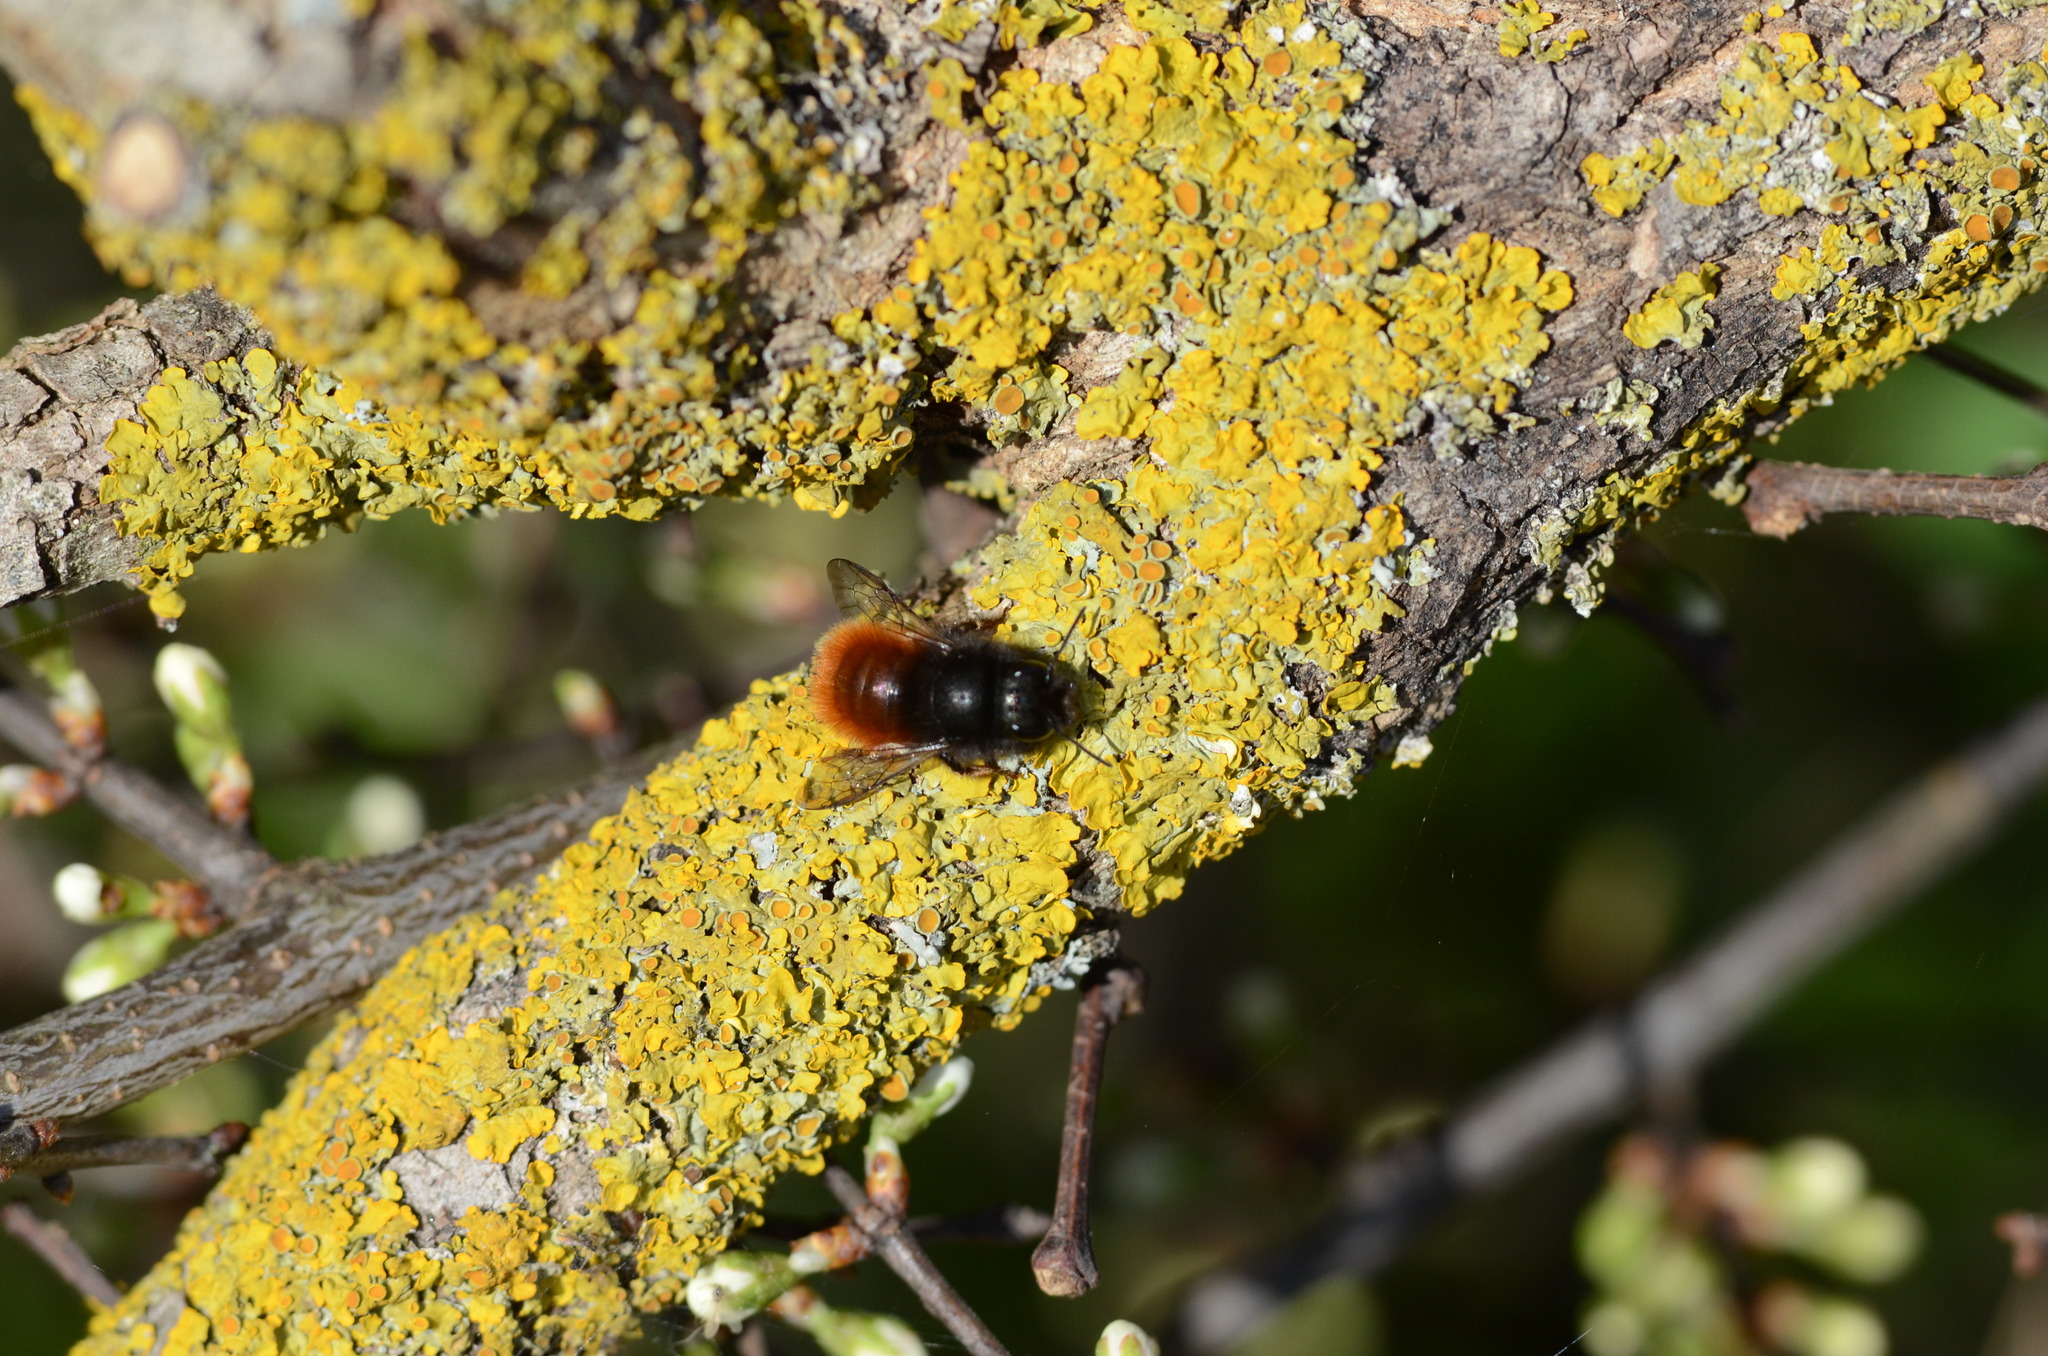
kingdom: Fungi
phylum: Ascomycota
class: Lecanoromycetes
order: Teloschistales
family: Teloschistaceae
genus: Xanthoria
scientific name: Xanthoria parietina
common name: Common orange lichen
